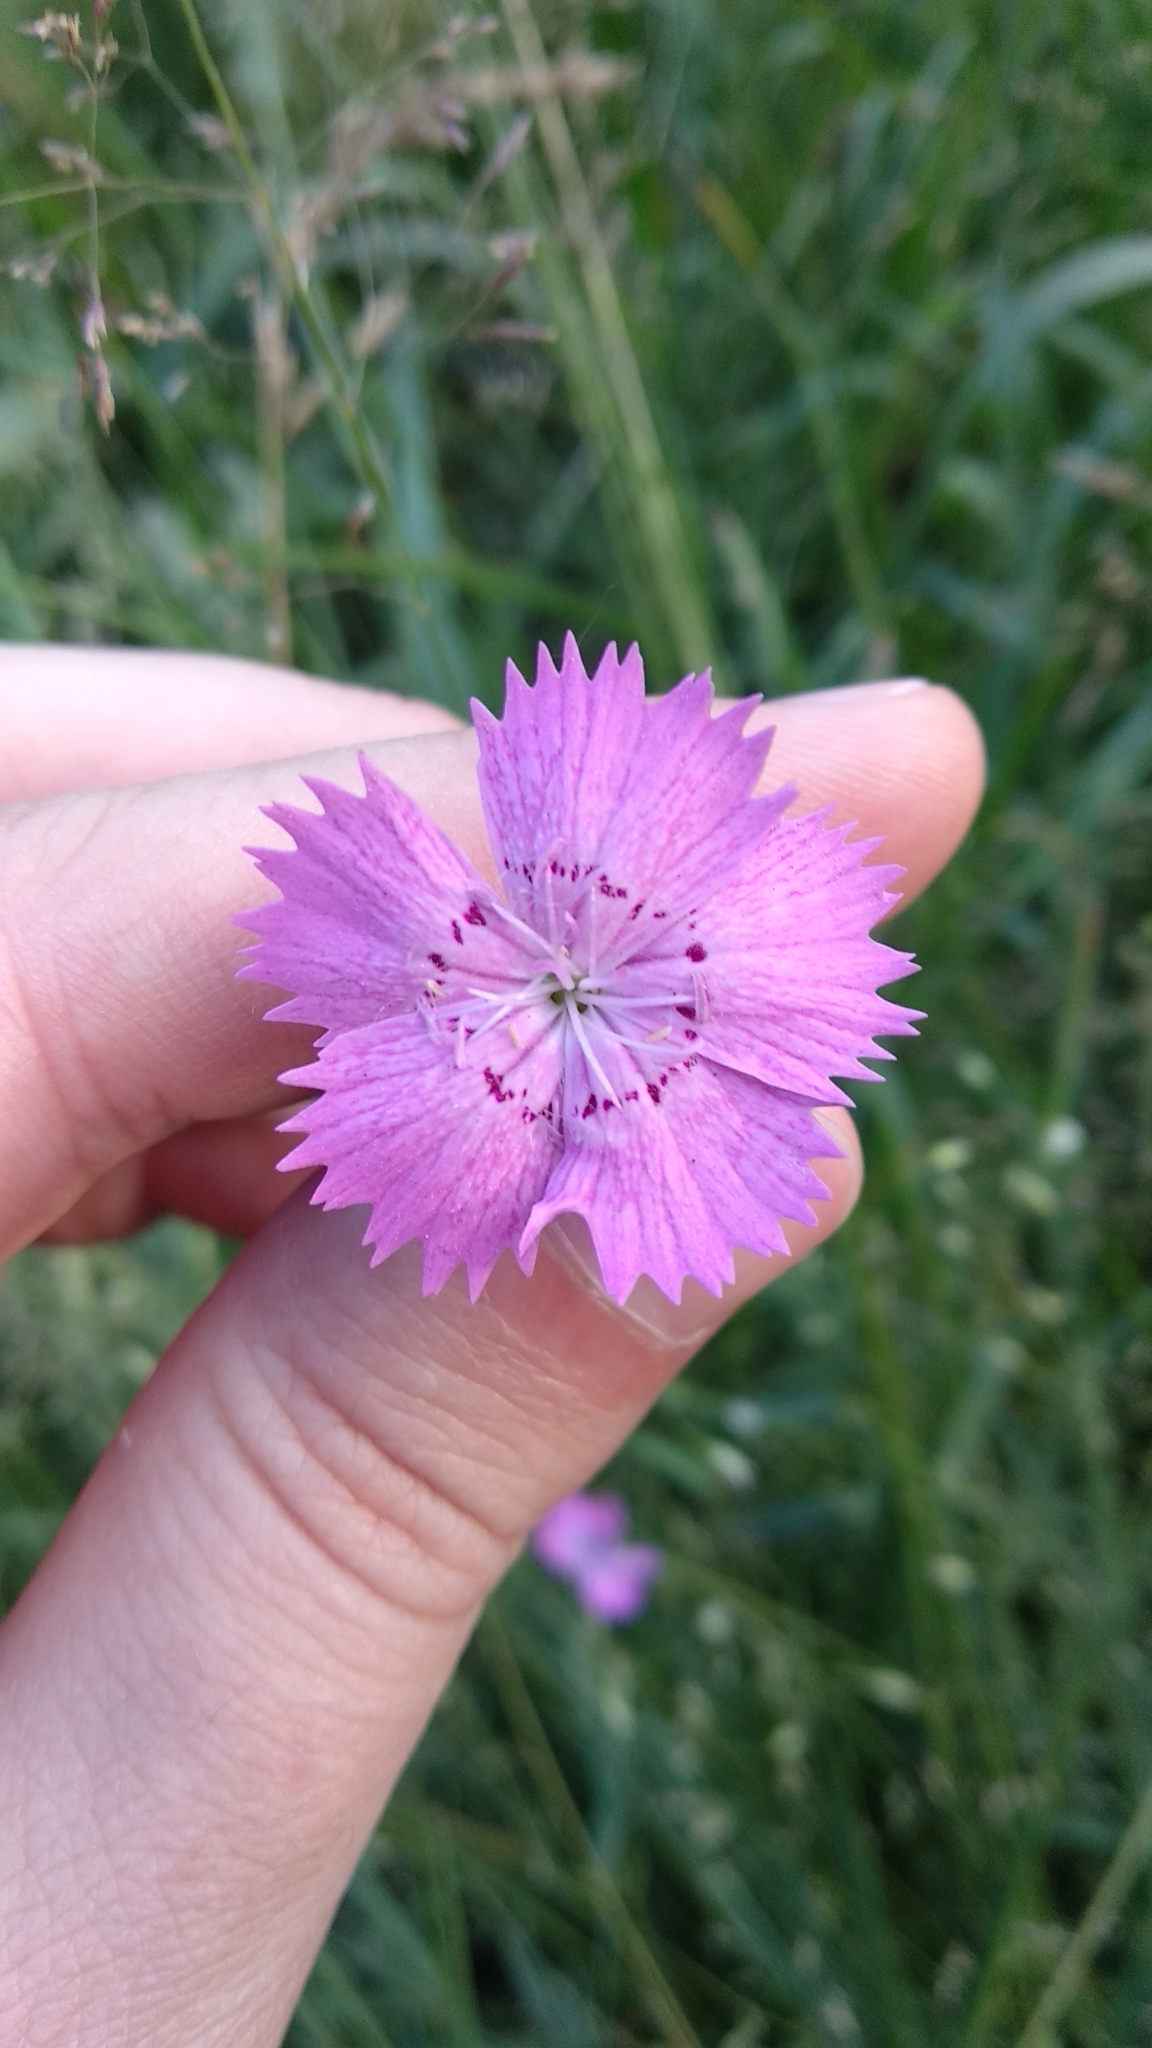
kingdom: Plantae
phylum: Tracheophyta
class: Magnoliopsida
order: Caryophyllales
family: Caryophyllaceae
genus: Dianthus
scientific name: Dianthus chinensis
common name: Rainbow pink
